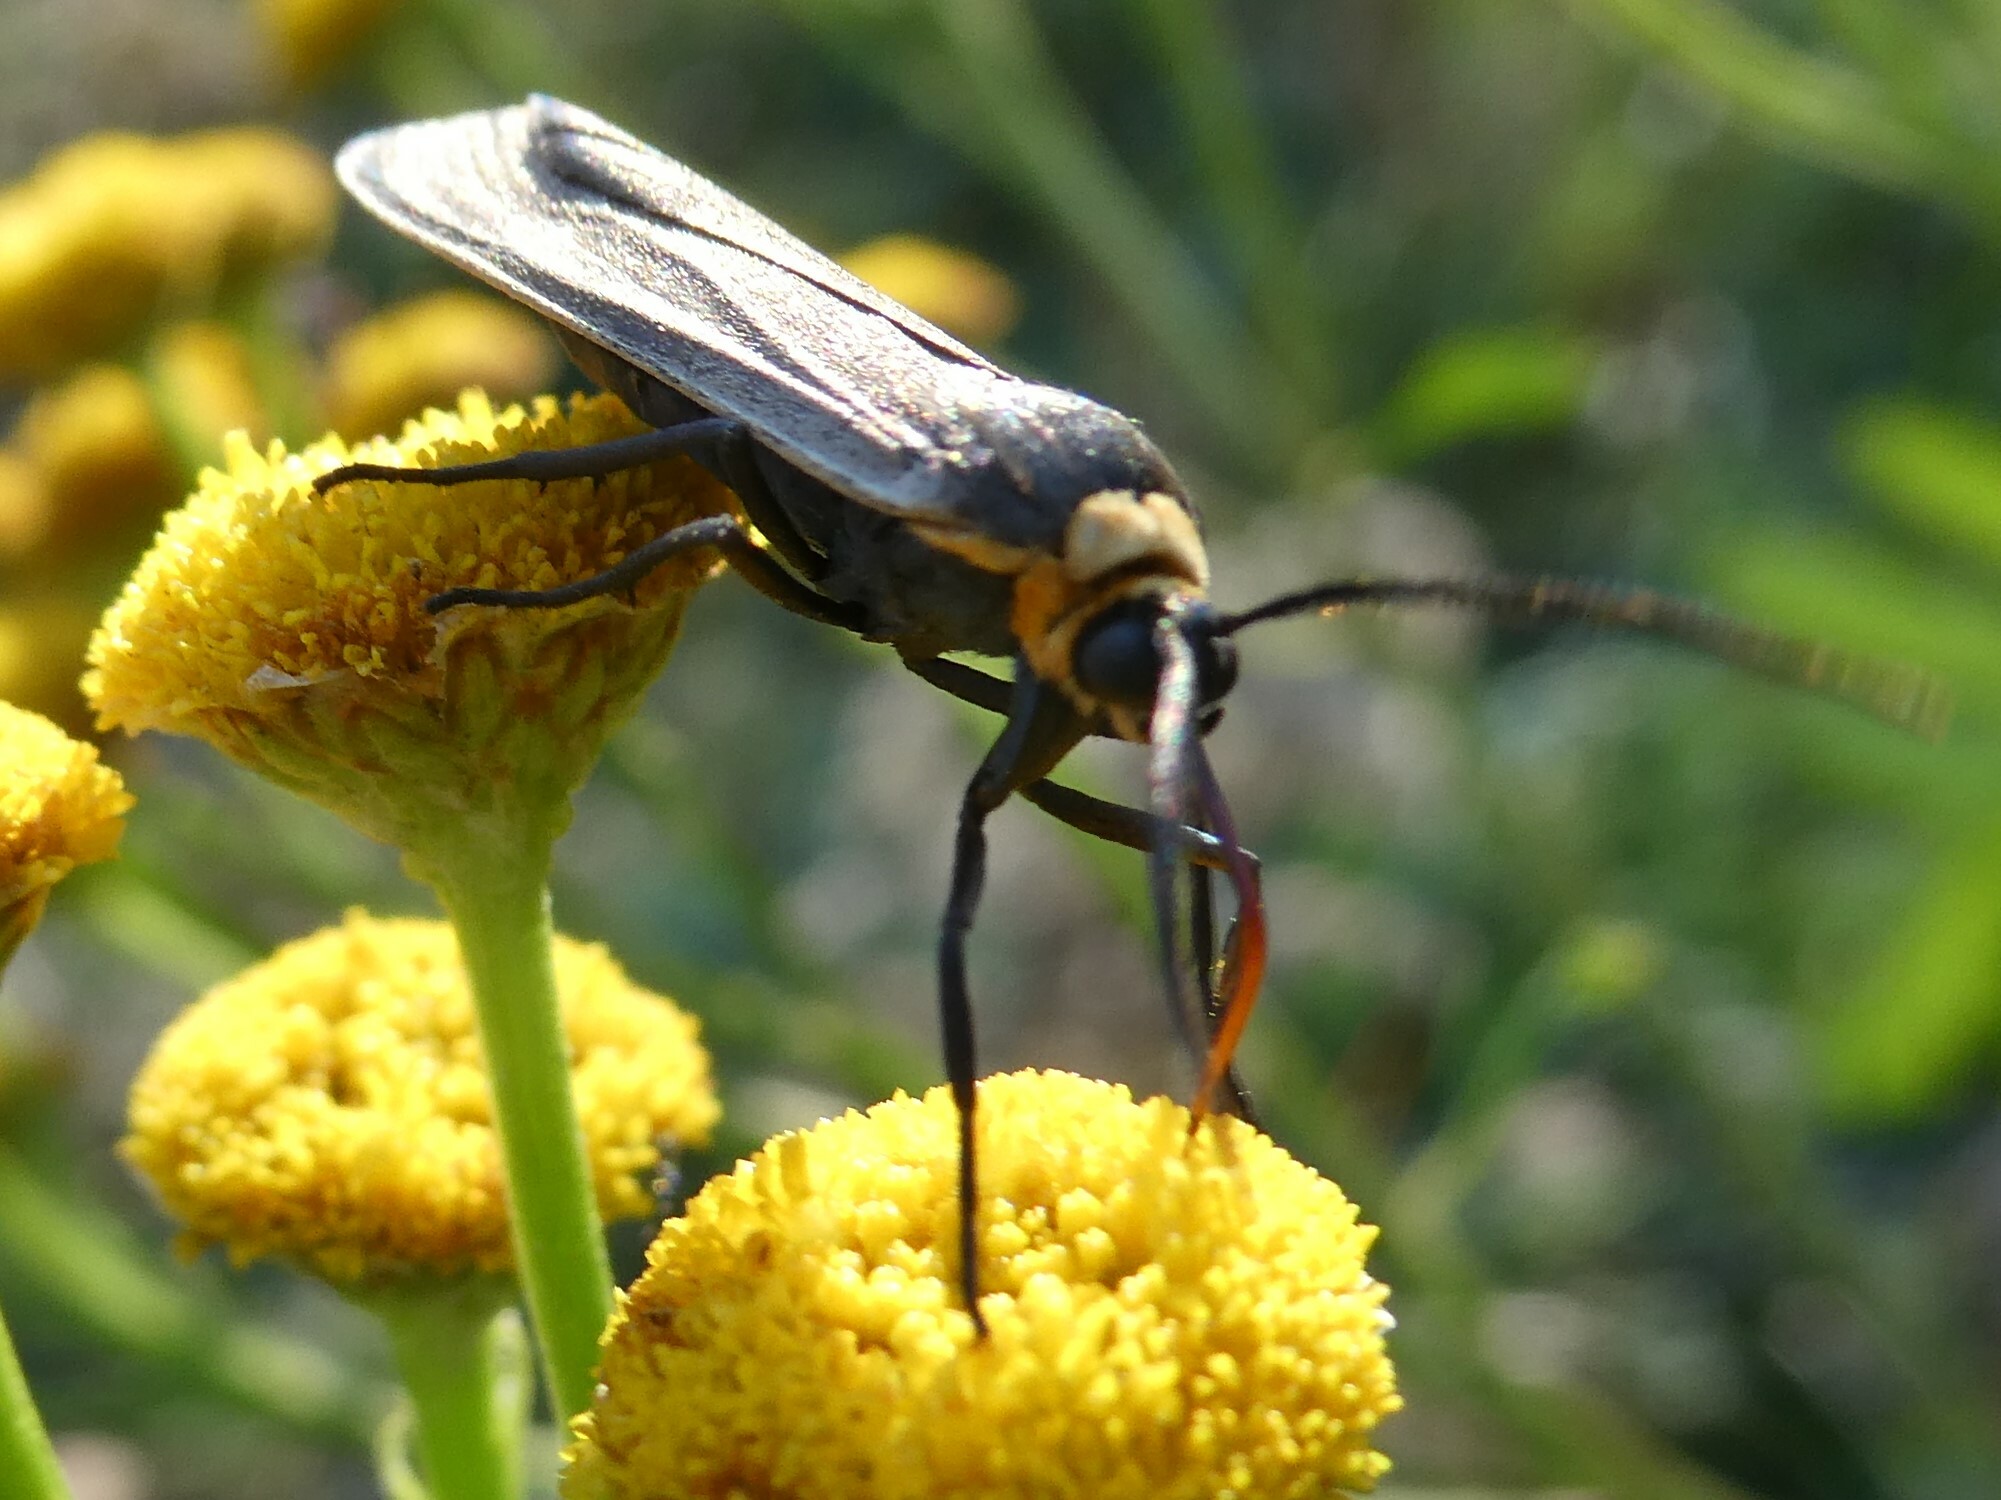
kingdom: Animalia
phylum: Arthropoda
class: Insecta
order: Lepidoptera
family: Erebidae
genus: Cisseps
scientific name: Cisseps fulvicollis
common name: Yellow-collared scape moth
